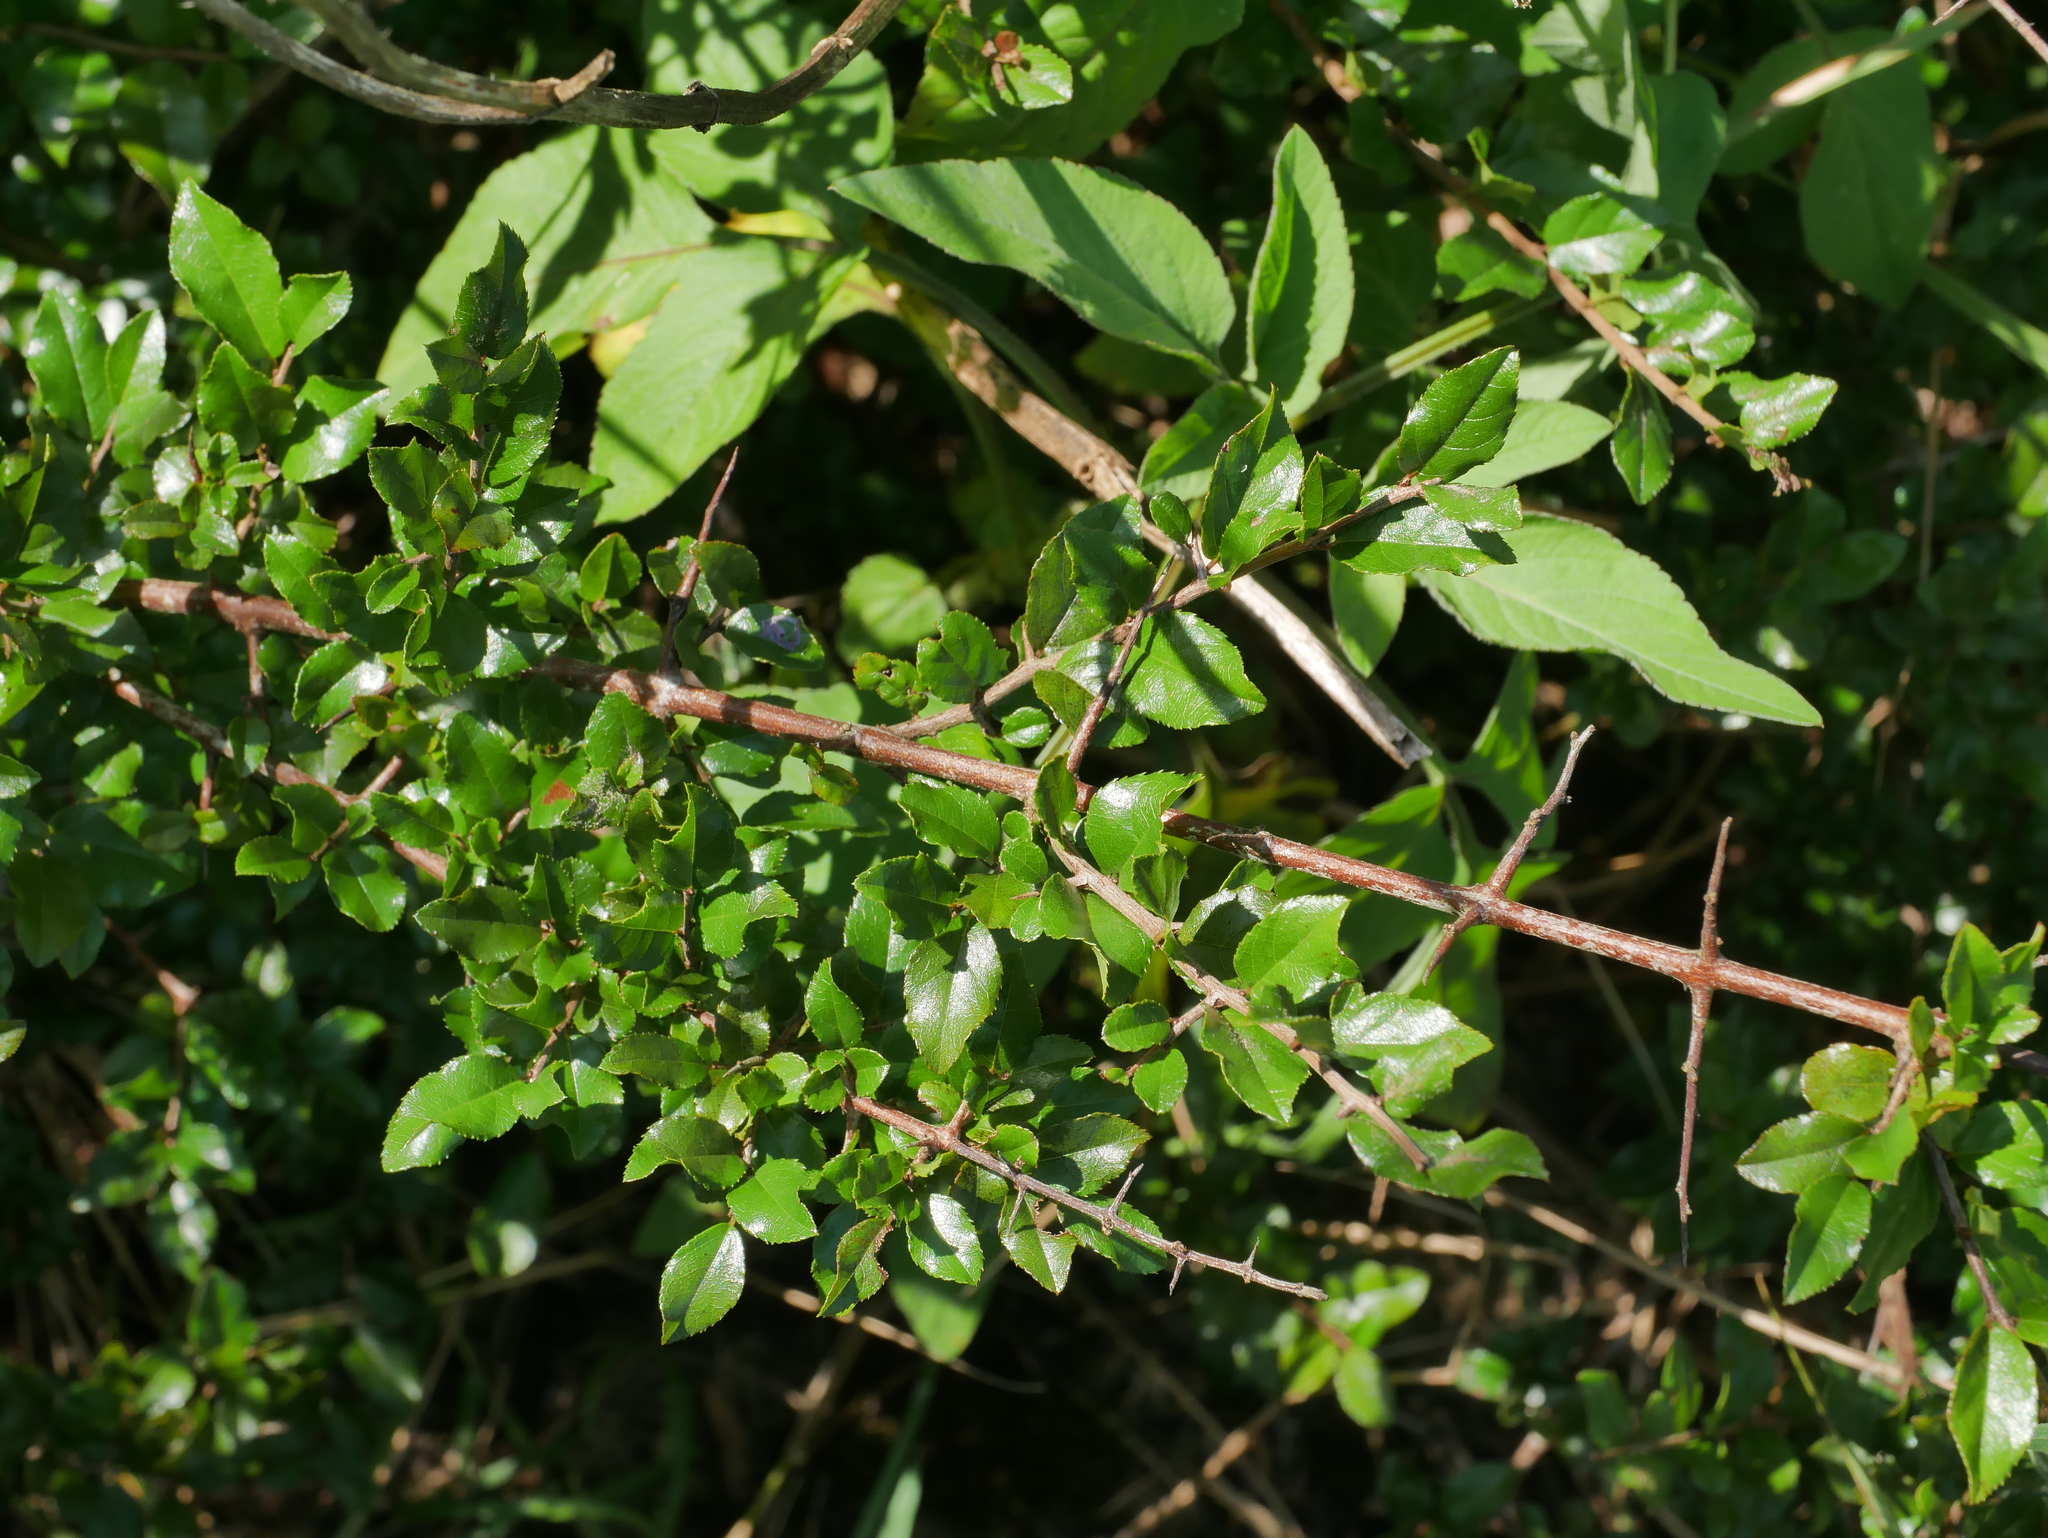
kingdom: Plantae
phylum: Tracheophyta
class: Magnoliopsida
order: Rosales
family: Rhamnaceae
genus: Sageretia
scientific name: Sageretia thea
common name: Pauper's-tea
